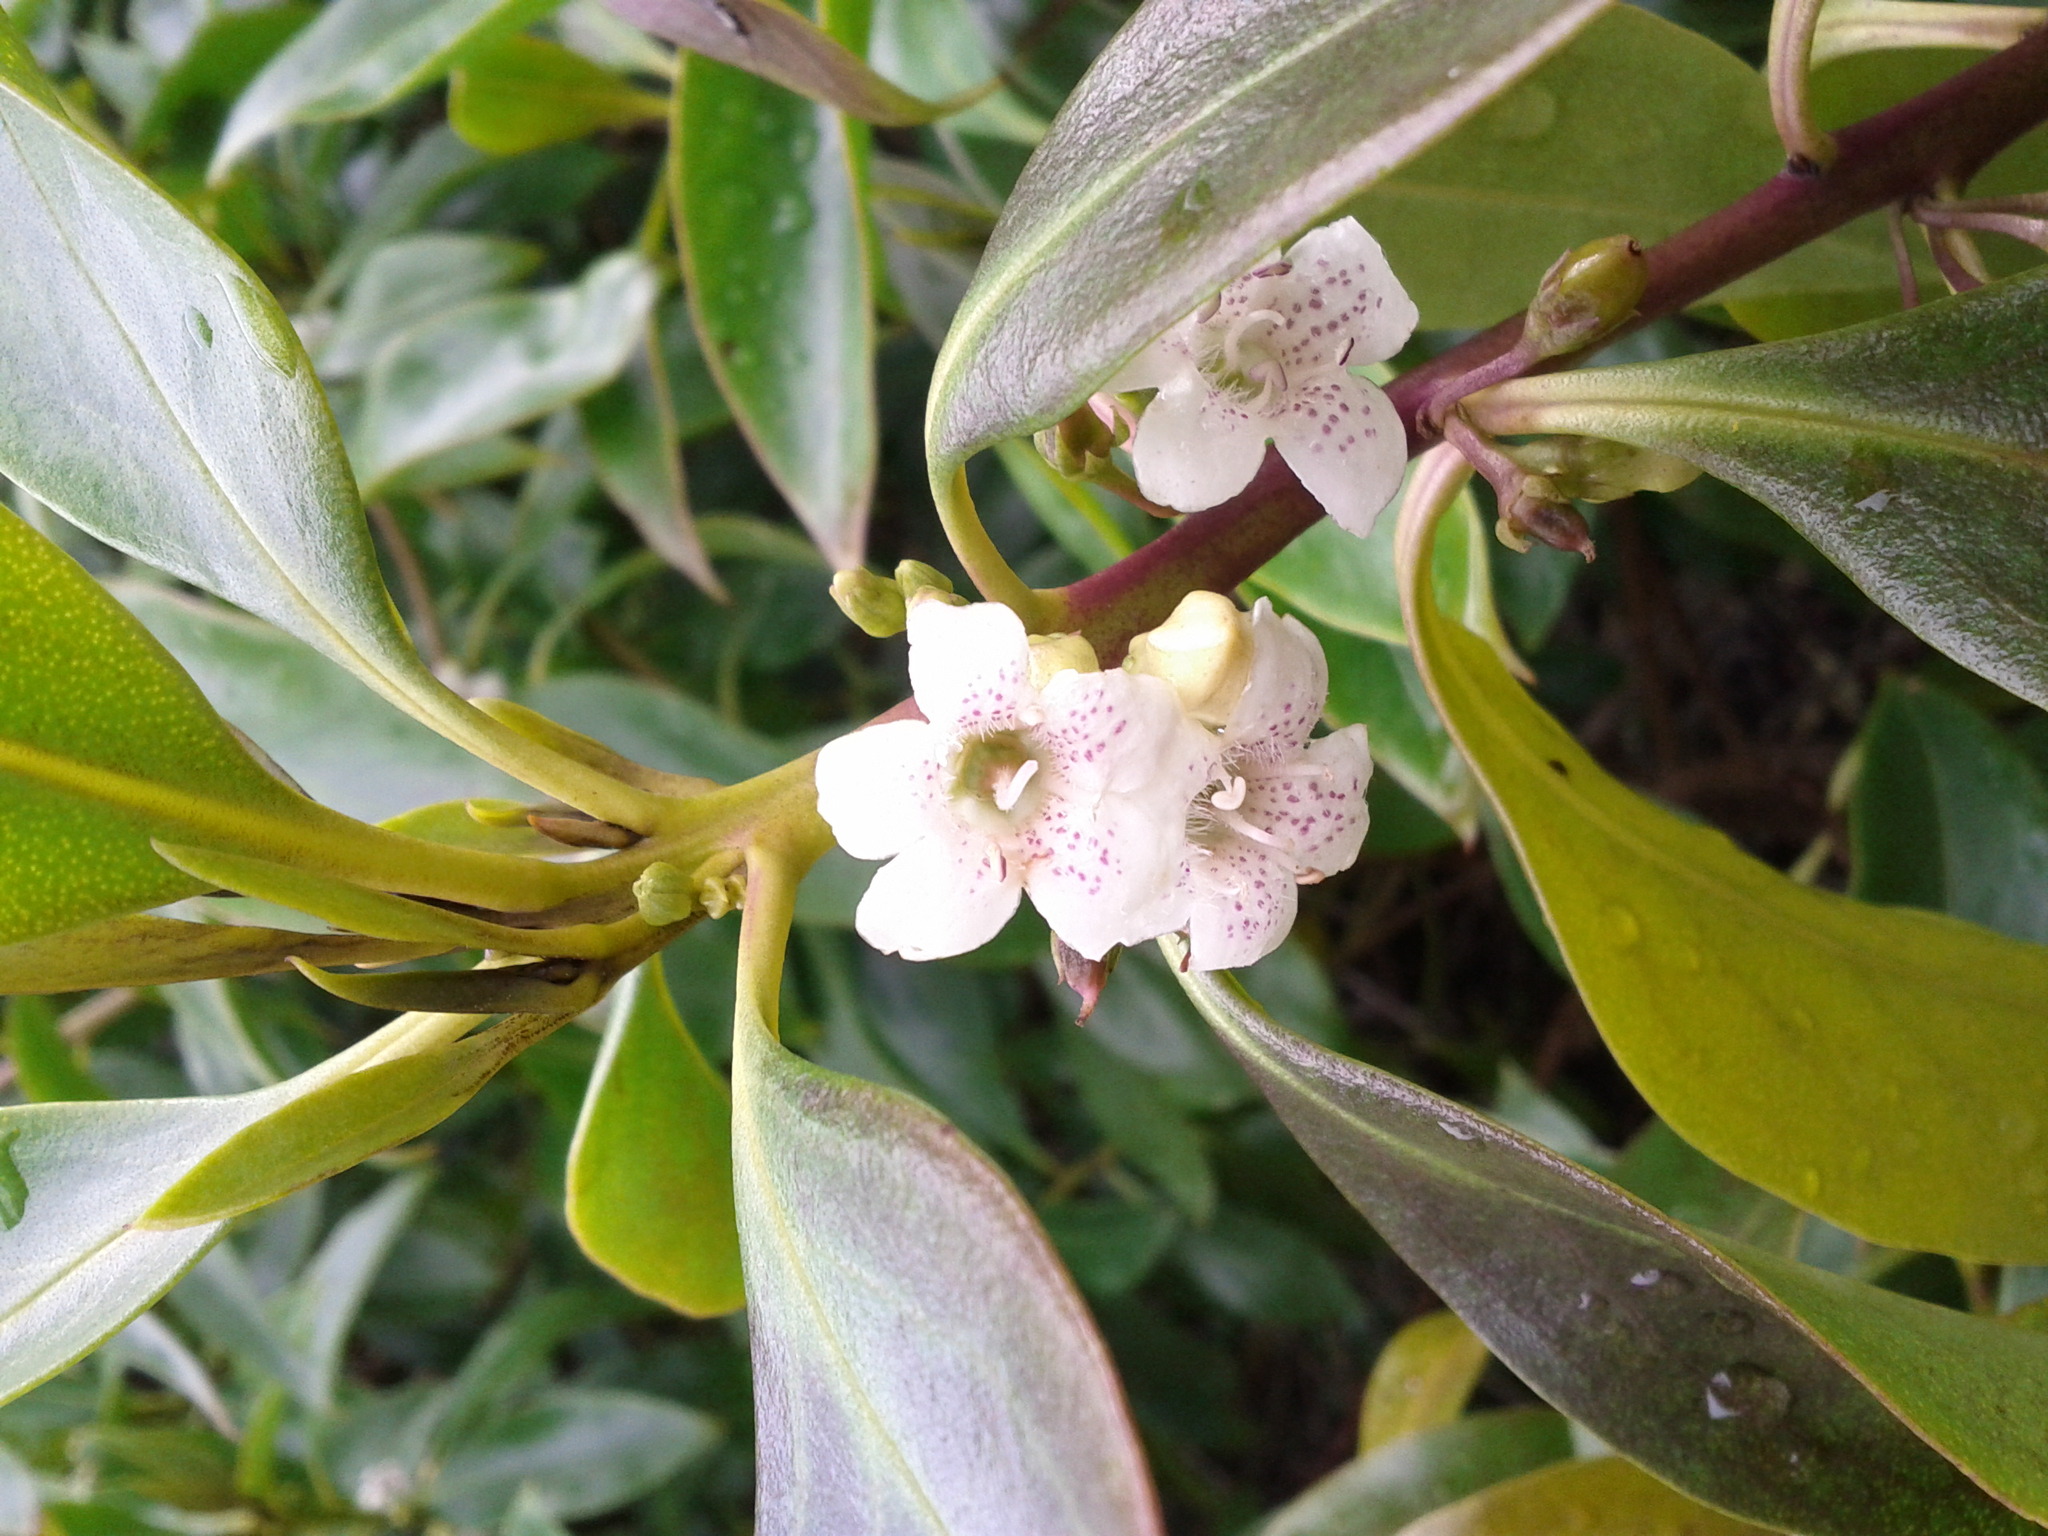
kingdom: Plantae
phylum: Tracheophyta
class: Magnoliopsida
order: Lamiales
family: Scrophulariaceae
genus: Myoporum
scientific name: Myoporum laetum
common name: Ngaio tree
